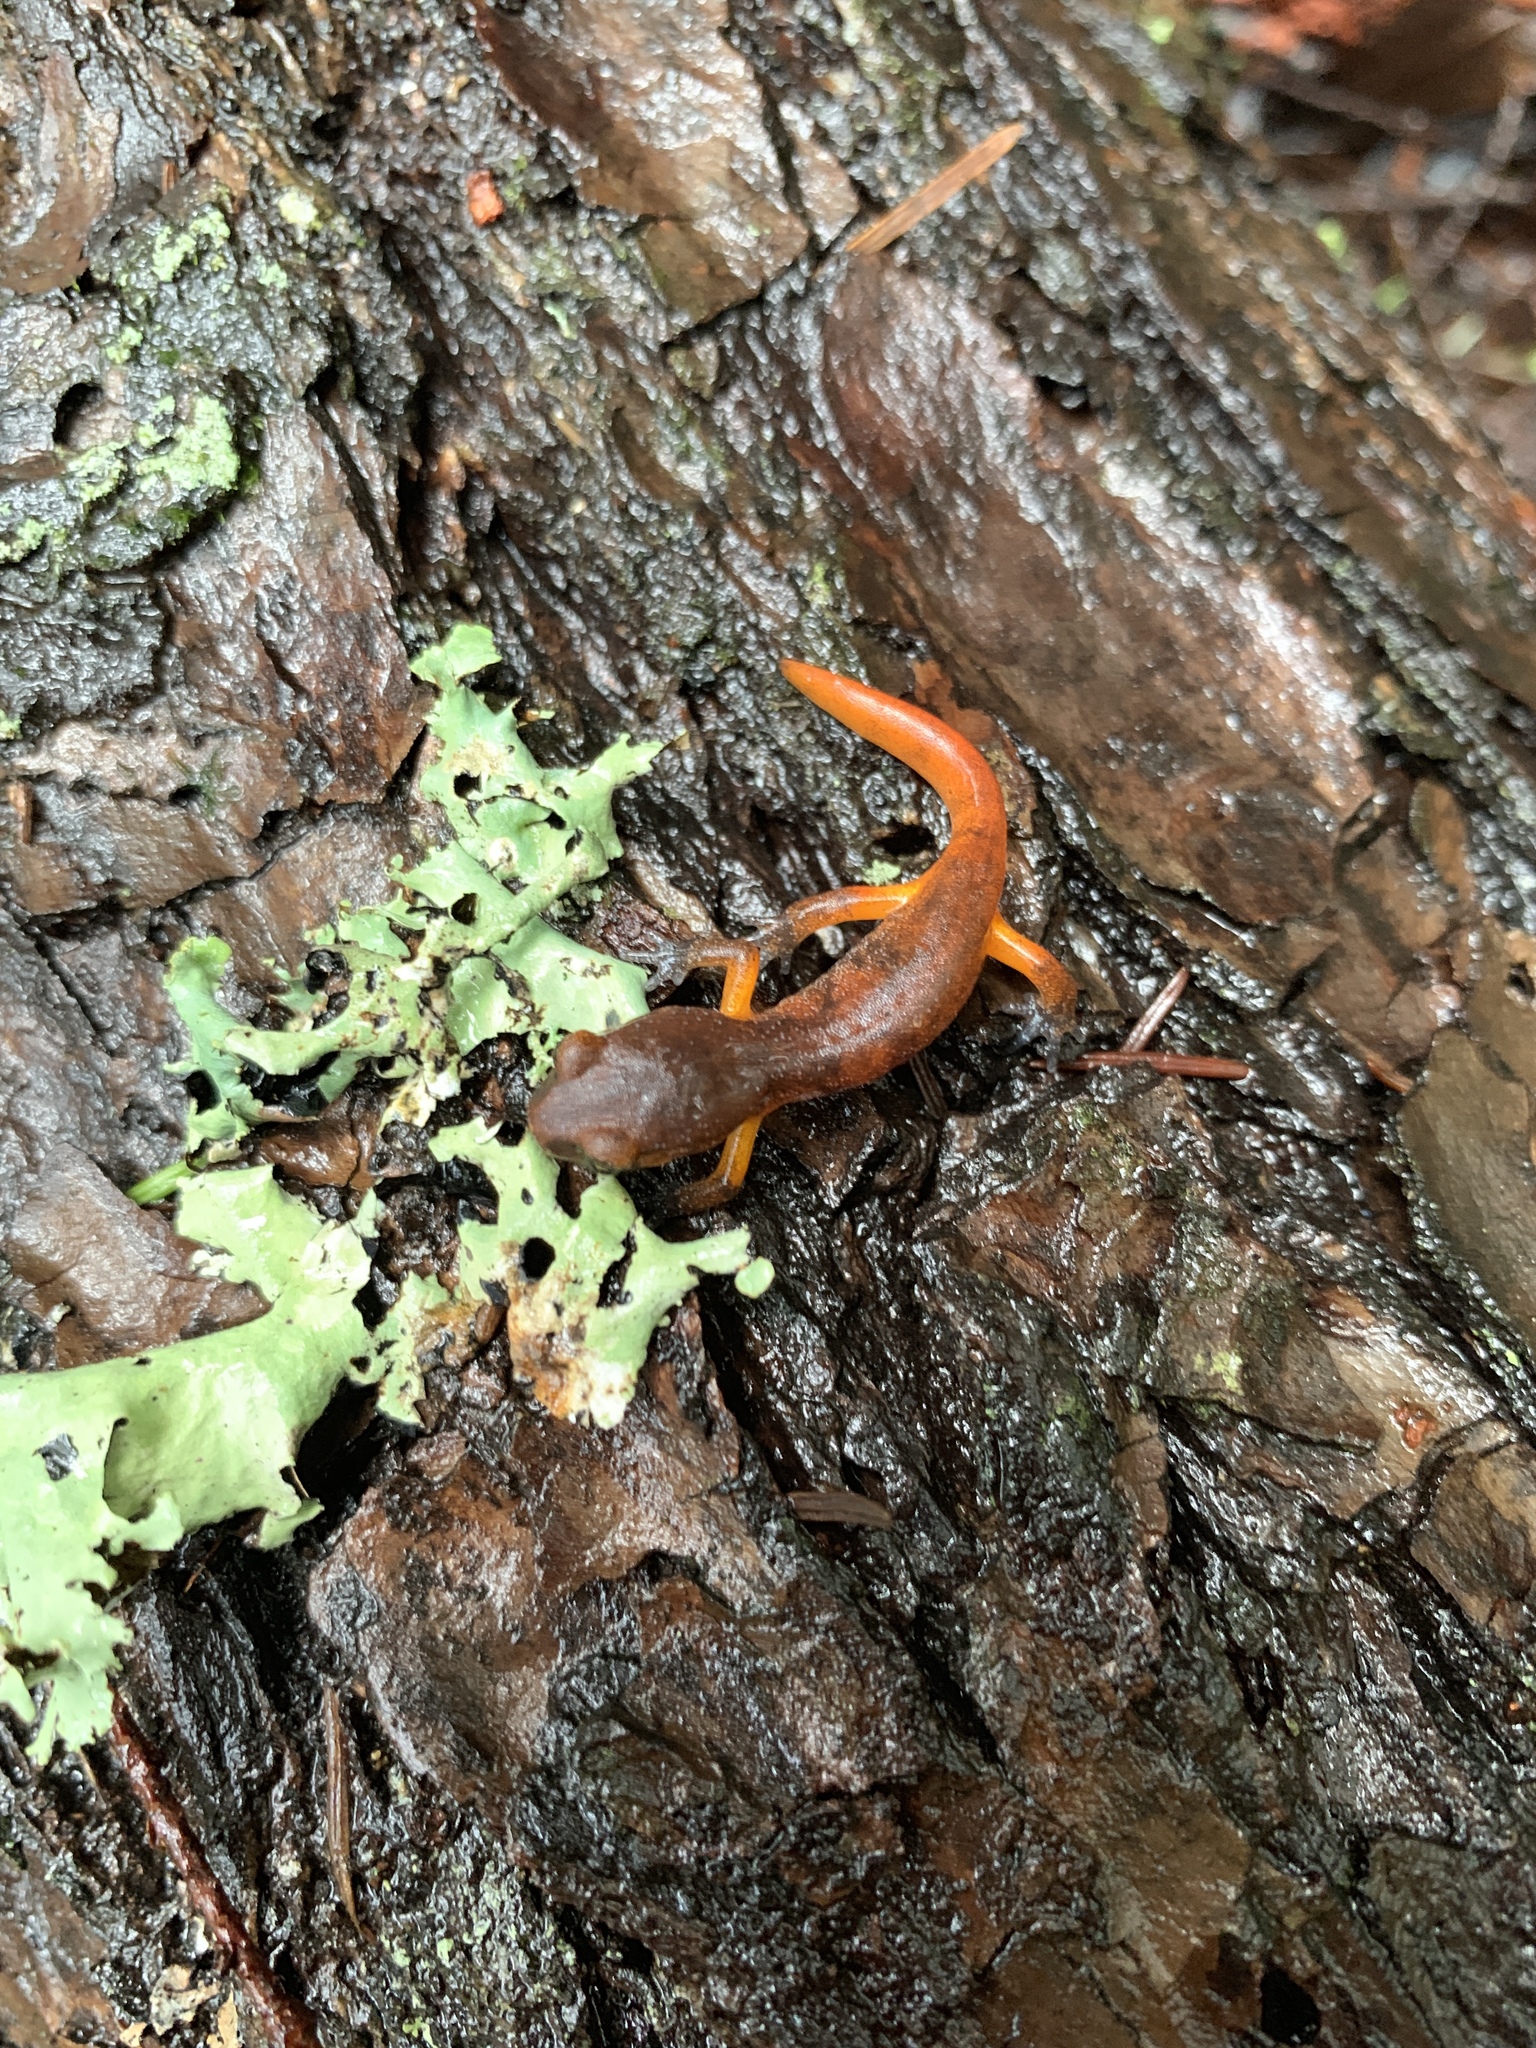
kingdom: Animalia
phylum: Chordata
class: Amphibia
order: Caudata
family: Plethodontidae
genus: Ensatina
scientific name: Ensatina eschscholtzii
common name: Ensatina
